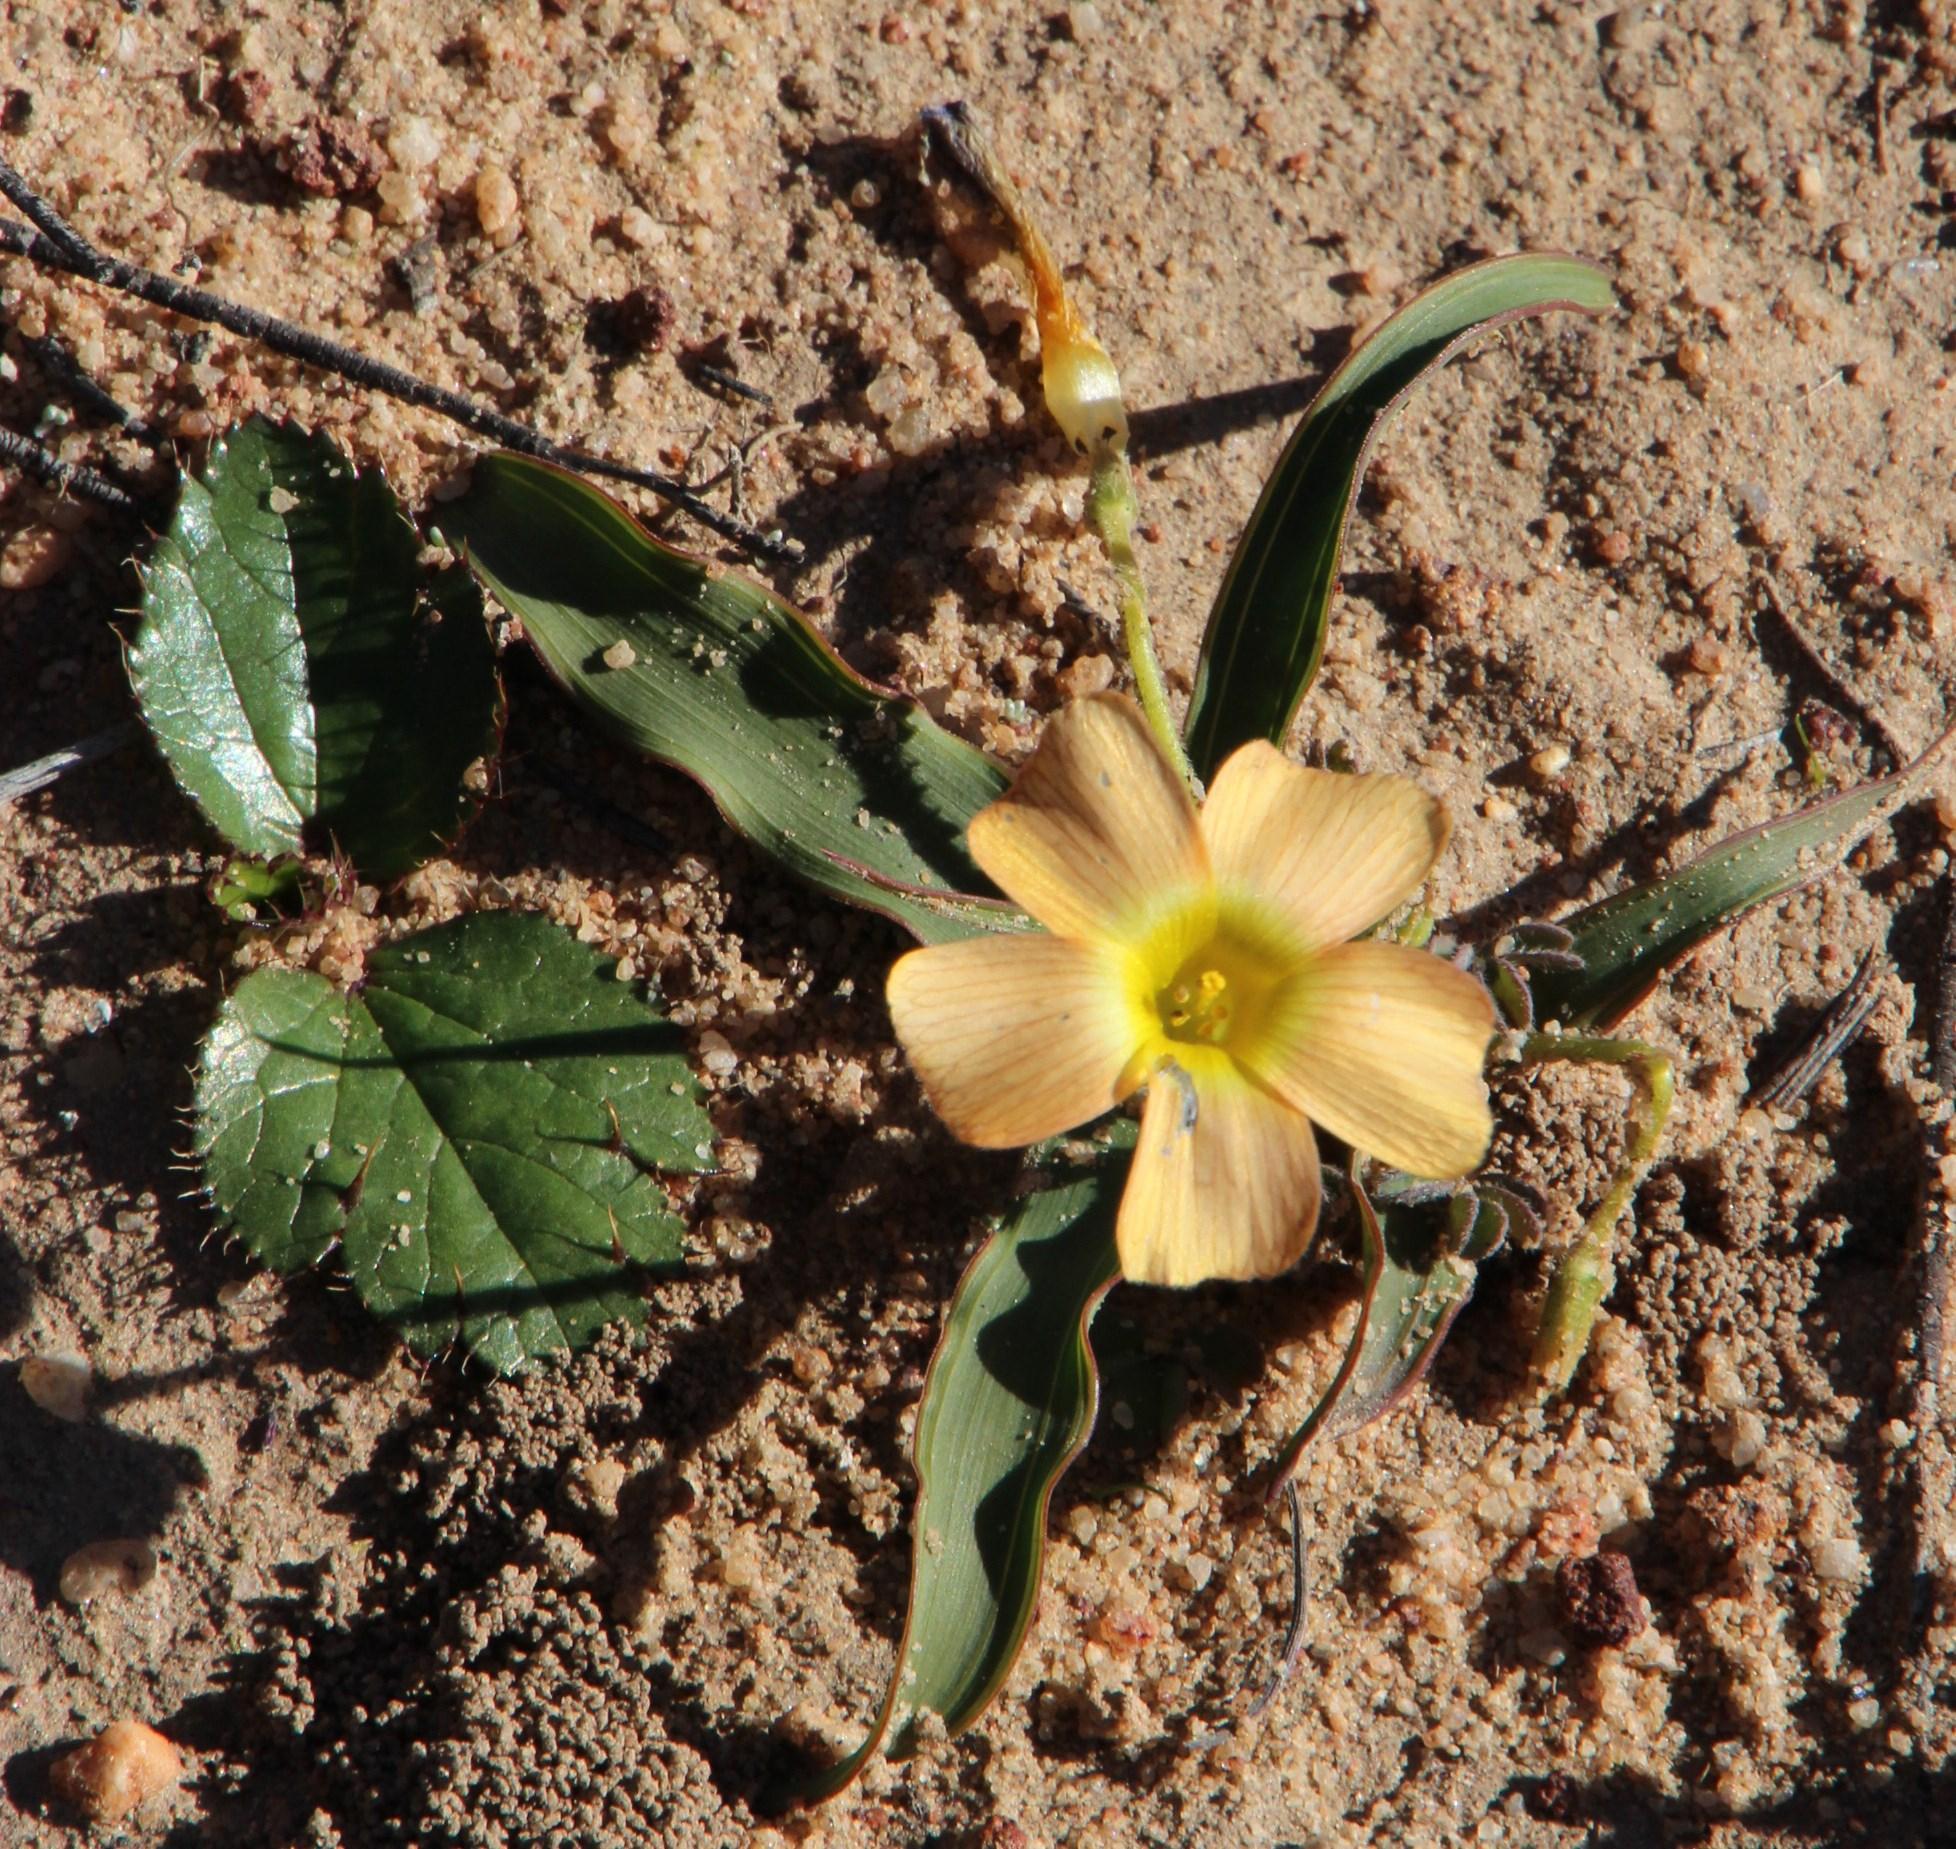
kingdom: Plantae
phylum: Tracheophyta
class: Magnoliopsida
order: Oxalidales
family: Oxalidaceae
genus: Oxalis
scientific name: Oxalis obtusa
